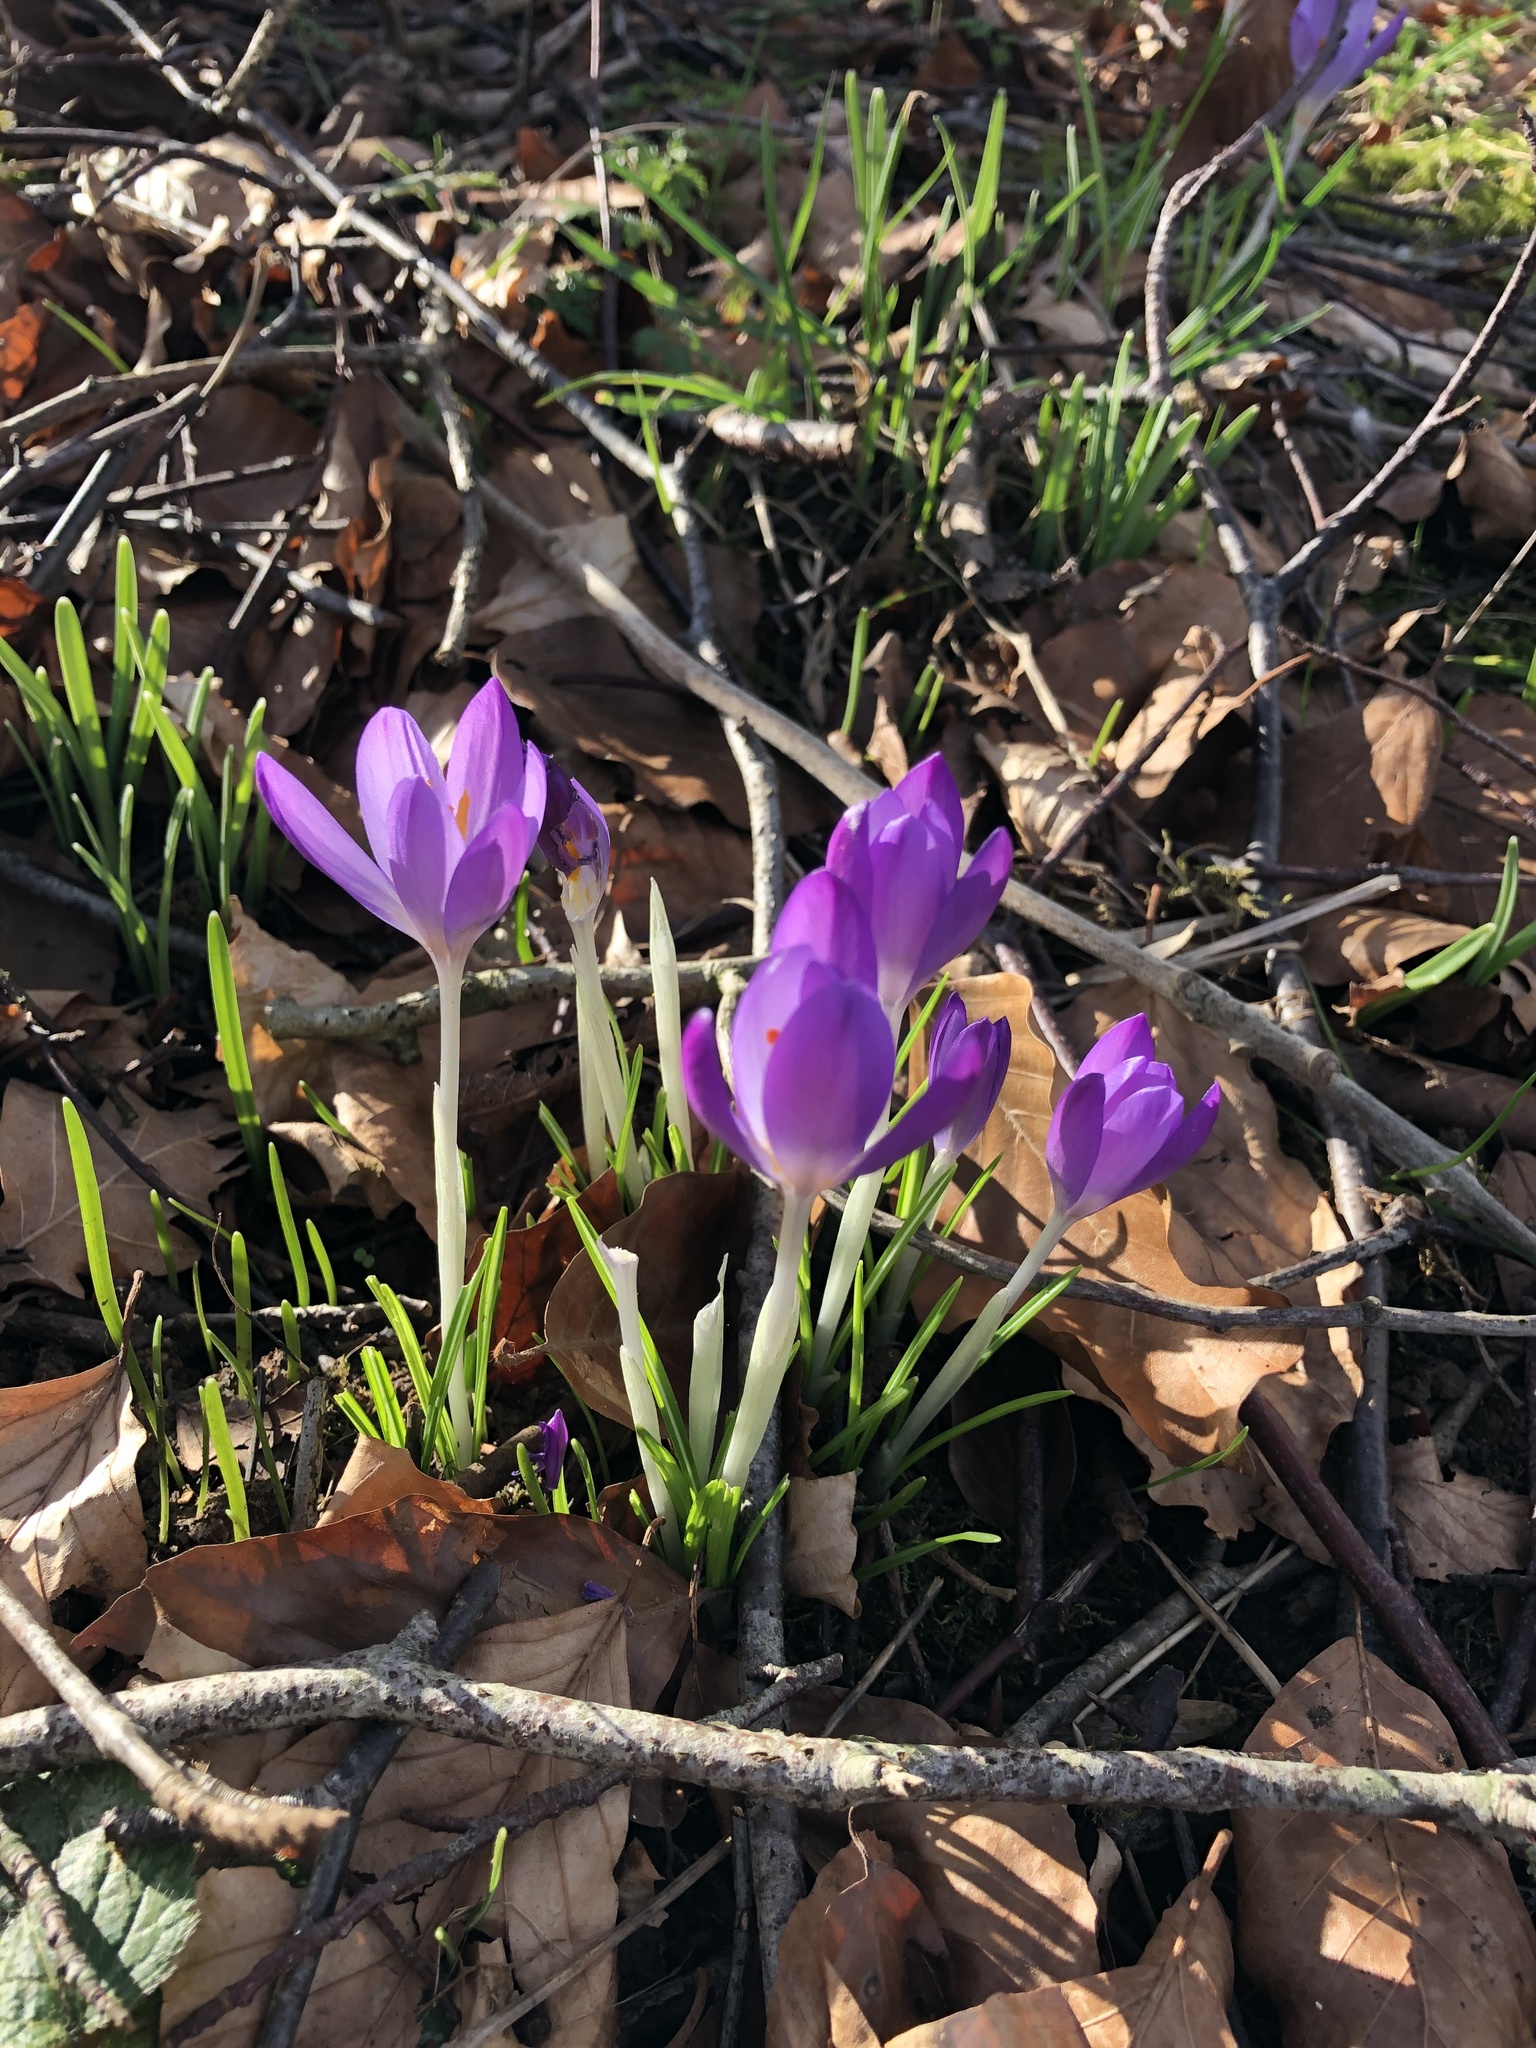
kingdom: Plantae
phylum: Tracheophyta
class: Liliopsida
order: Asparagales
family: Iridaceae
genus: Crocus
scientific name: Crocus tommasinianus
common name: Early crocus
